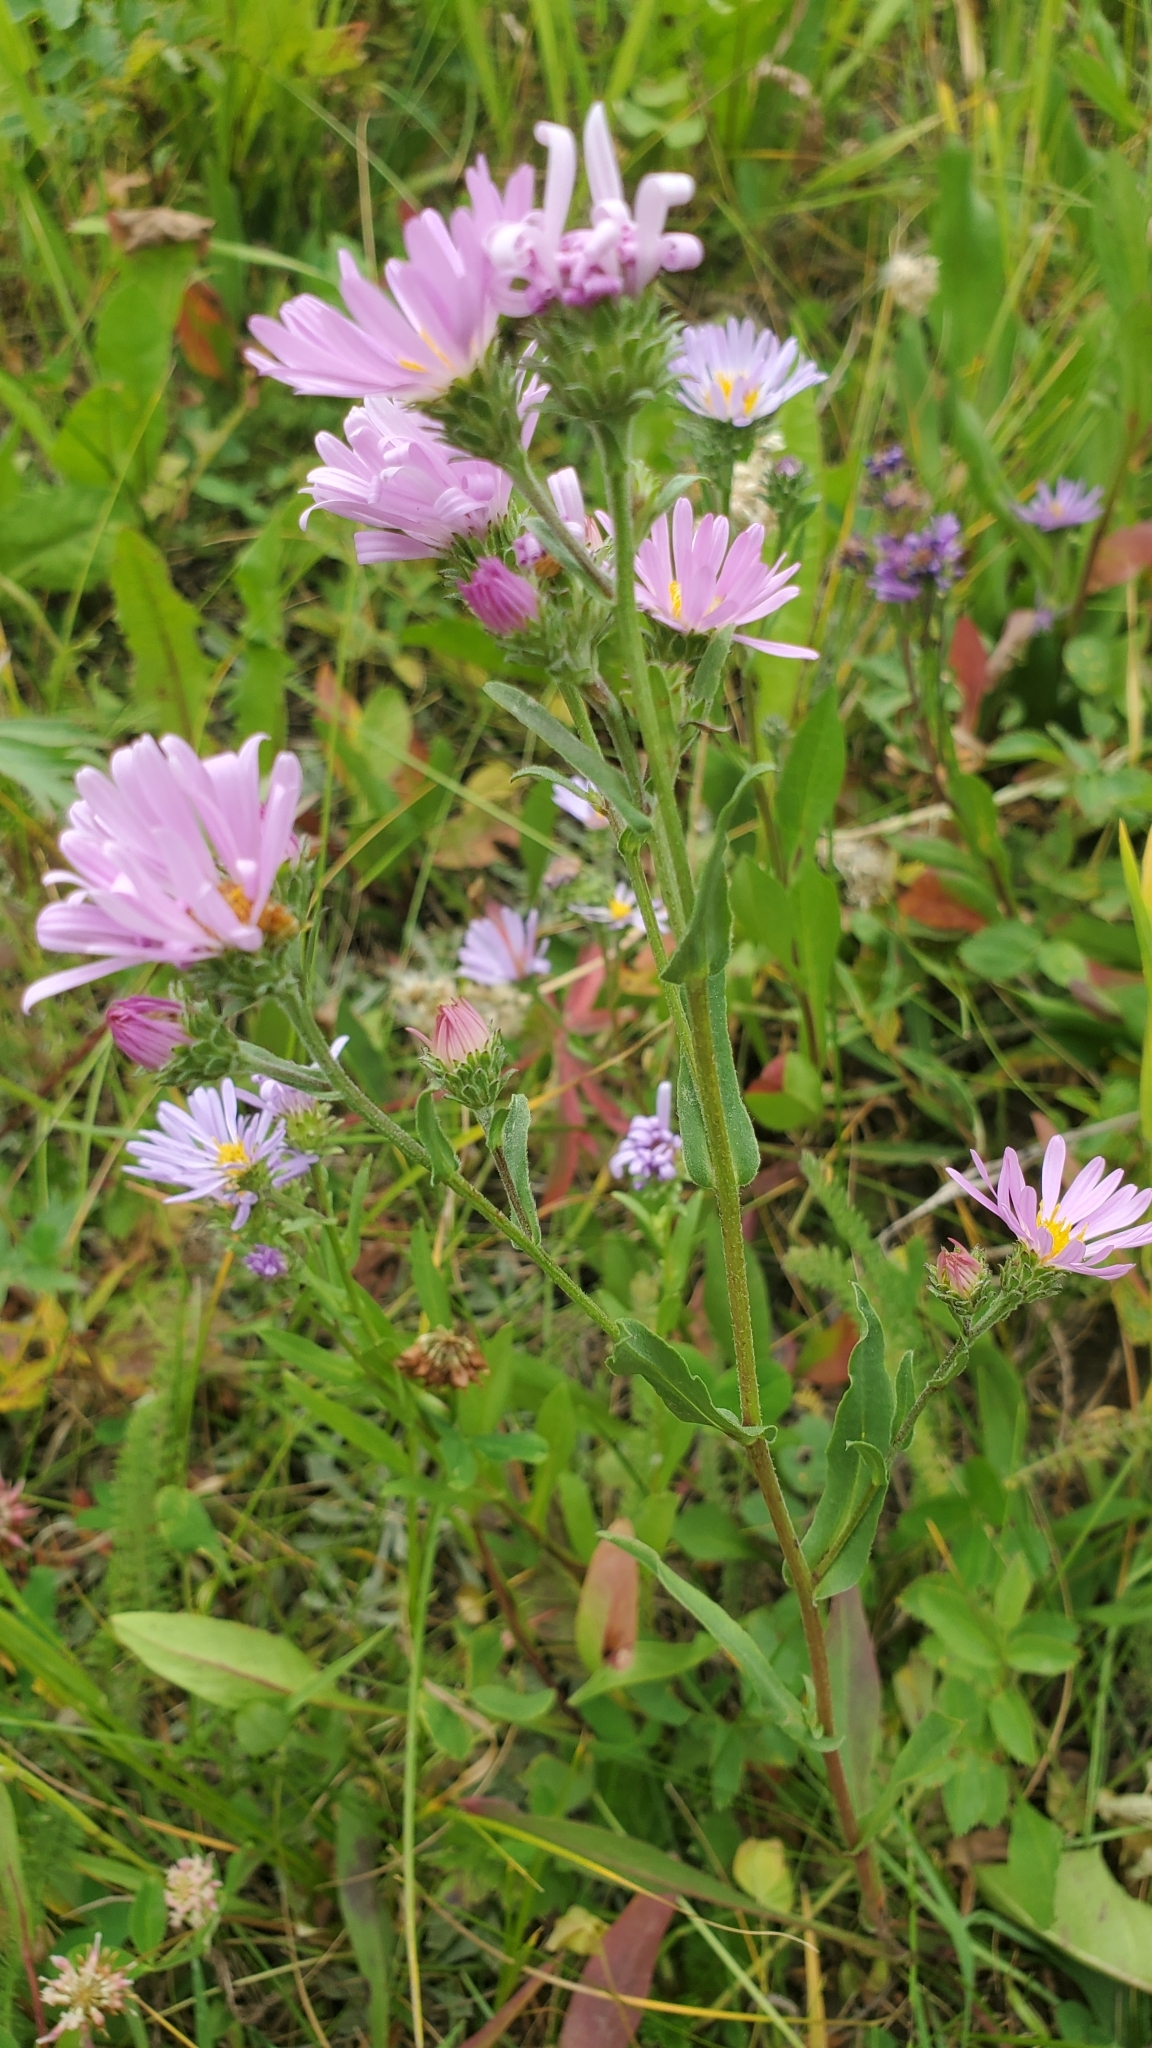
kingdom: Plantae
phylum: Tracheophyta
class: Magnoliopsida
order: Asterales
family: Asteraceae
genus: Symphyotrichum
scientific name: Symphyotrichum foliaceum
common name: Leafy aster
